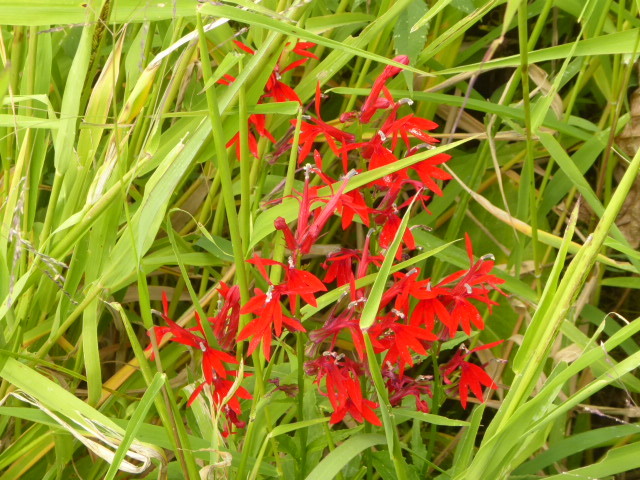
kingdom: Plantae
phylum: Tracheophyta
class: Magnoliopsida
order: Asterales
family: Campanulaceae
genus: Lobelia
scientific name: Lobelia cardinalis
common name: Cardinal flower
